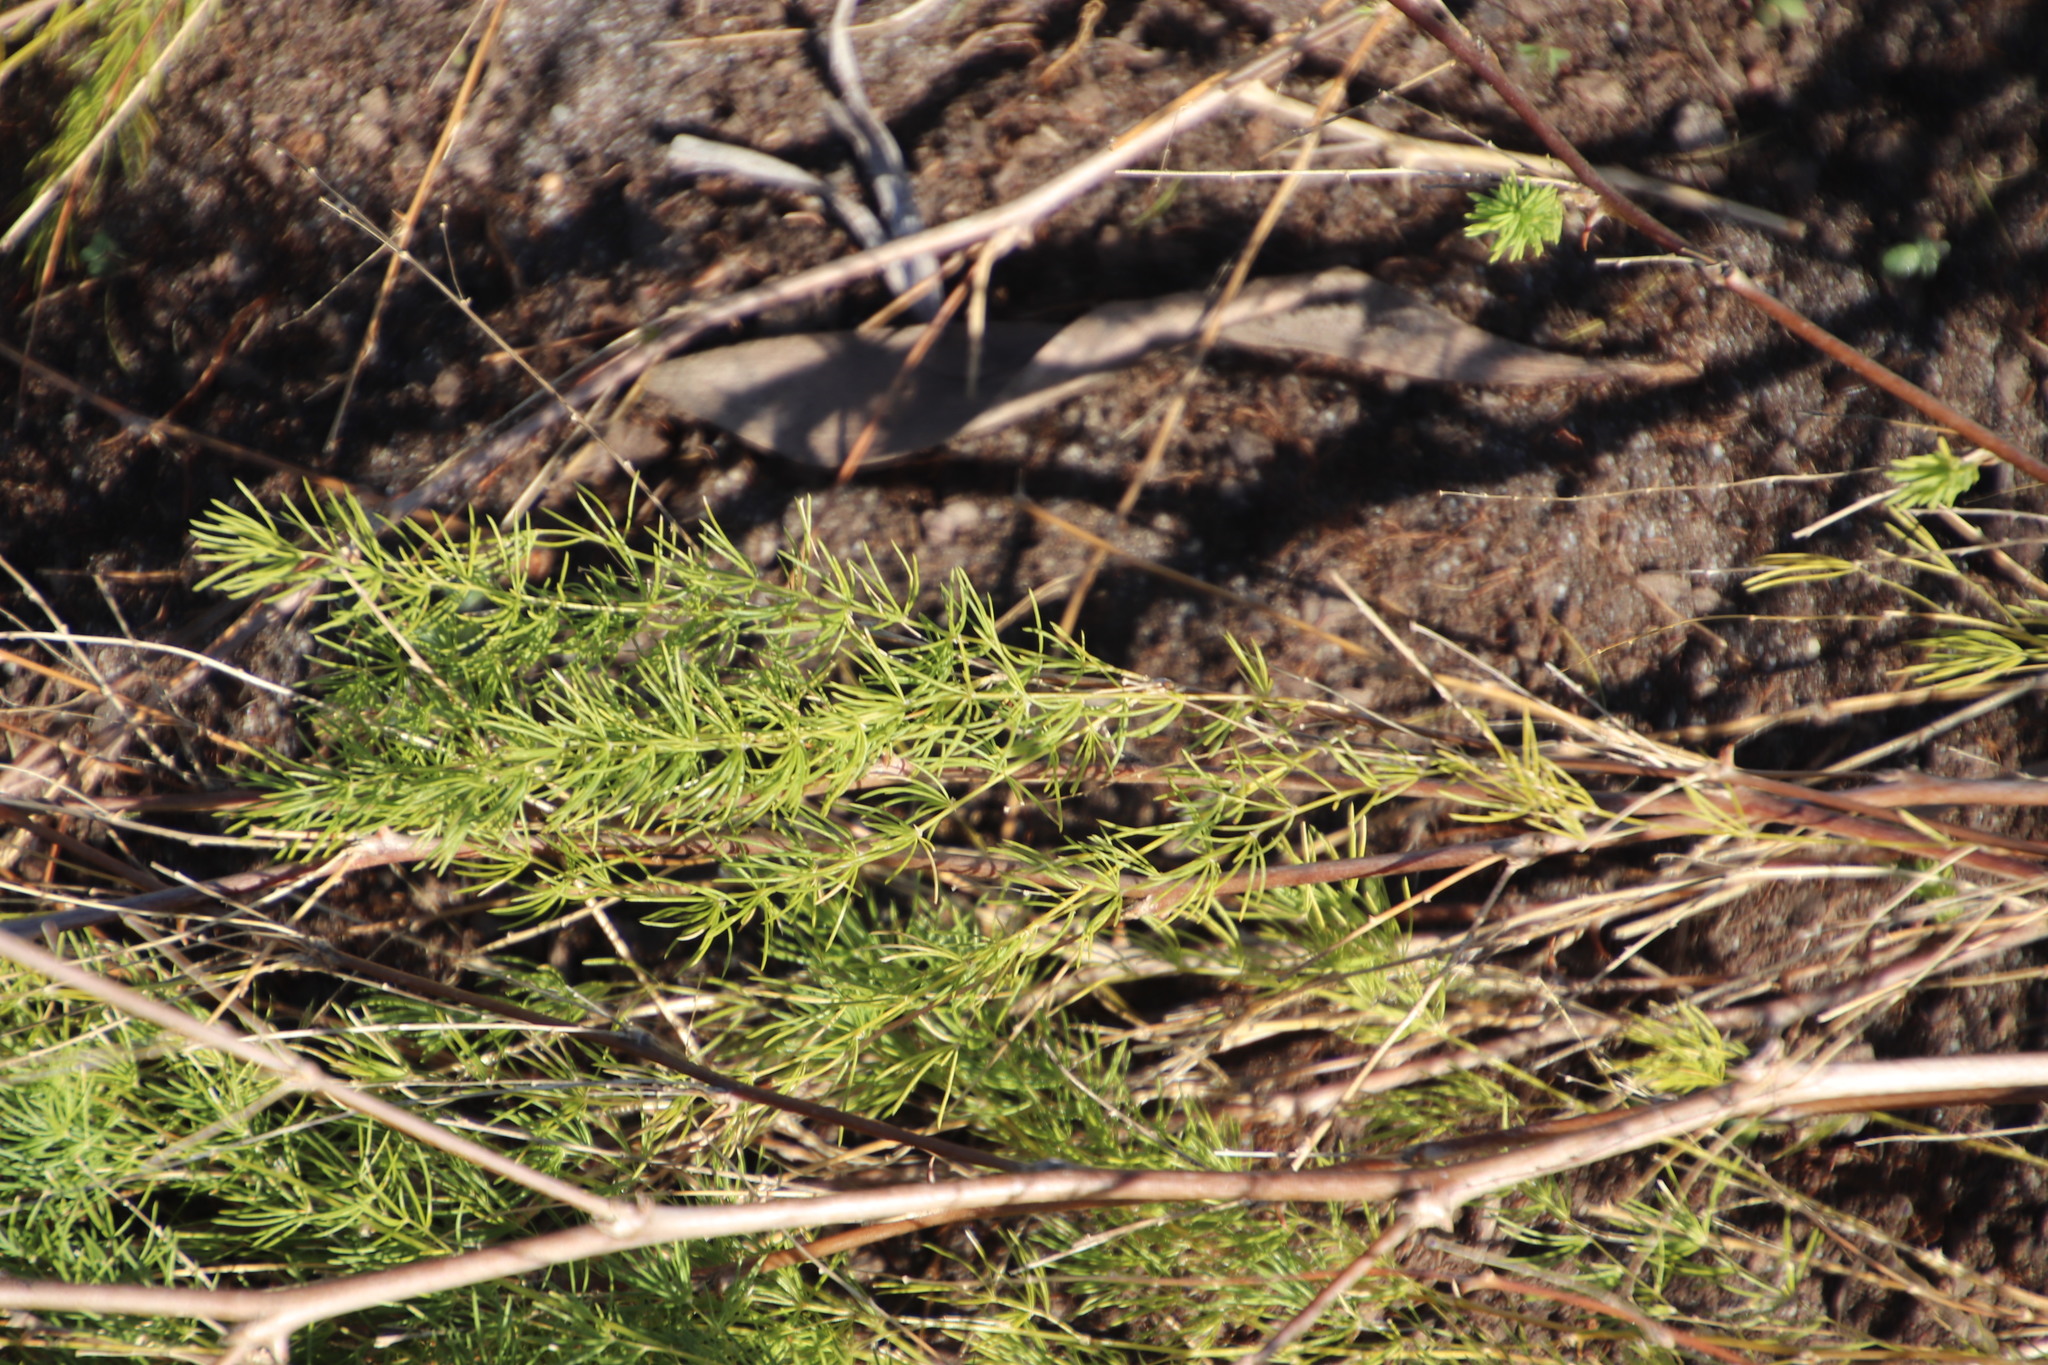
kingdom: Plantae
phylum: Tracheophyta
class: Liliopsida
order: Asparagales
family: Asparagaceae
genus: Asparagus
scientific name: Asparagus rubicundus
